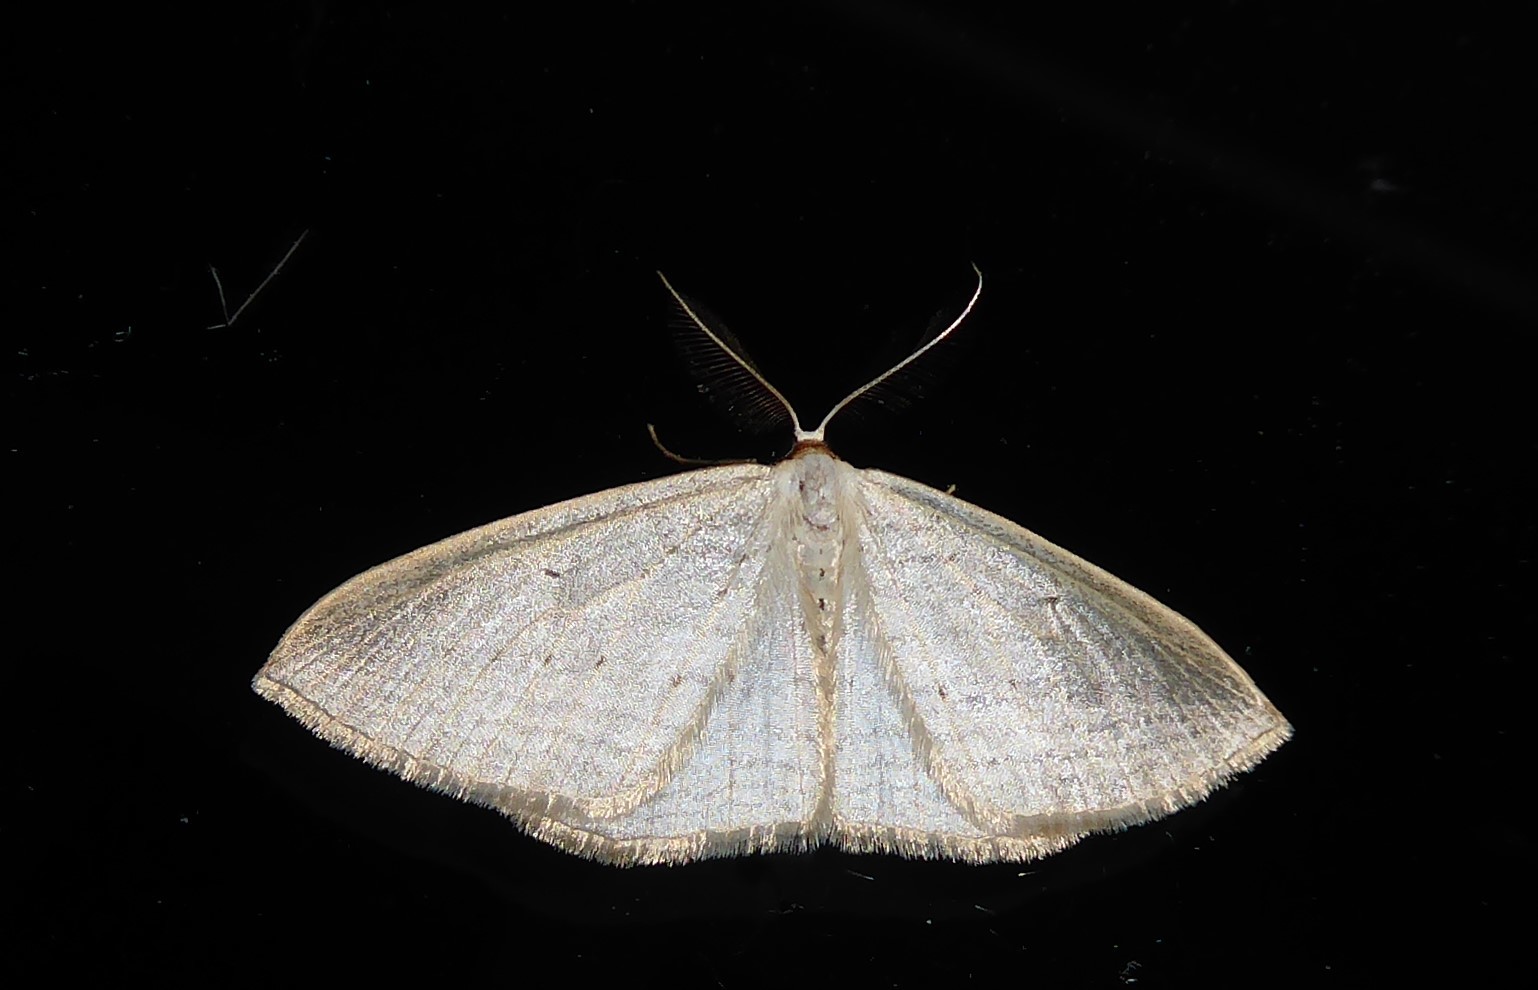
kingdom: Animalia
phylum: Arthropoda
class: Insecta
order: Lepidoptera
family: Geometridae
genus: Orthoclydon
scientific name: Orthoclydon praefectata
